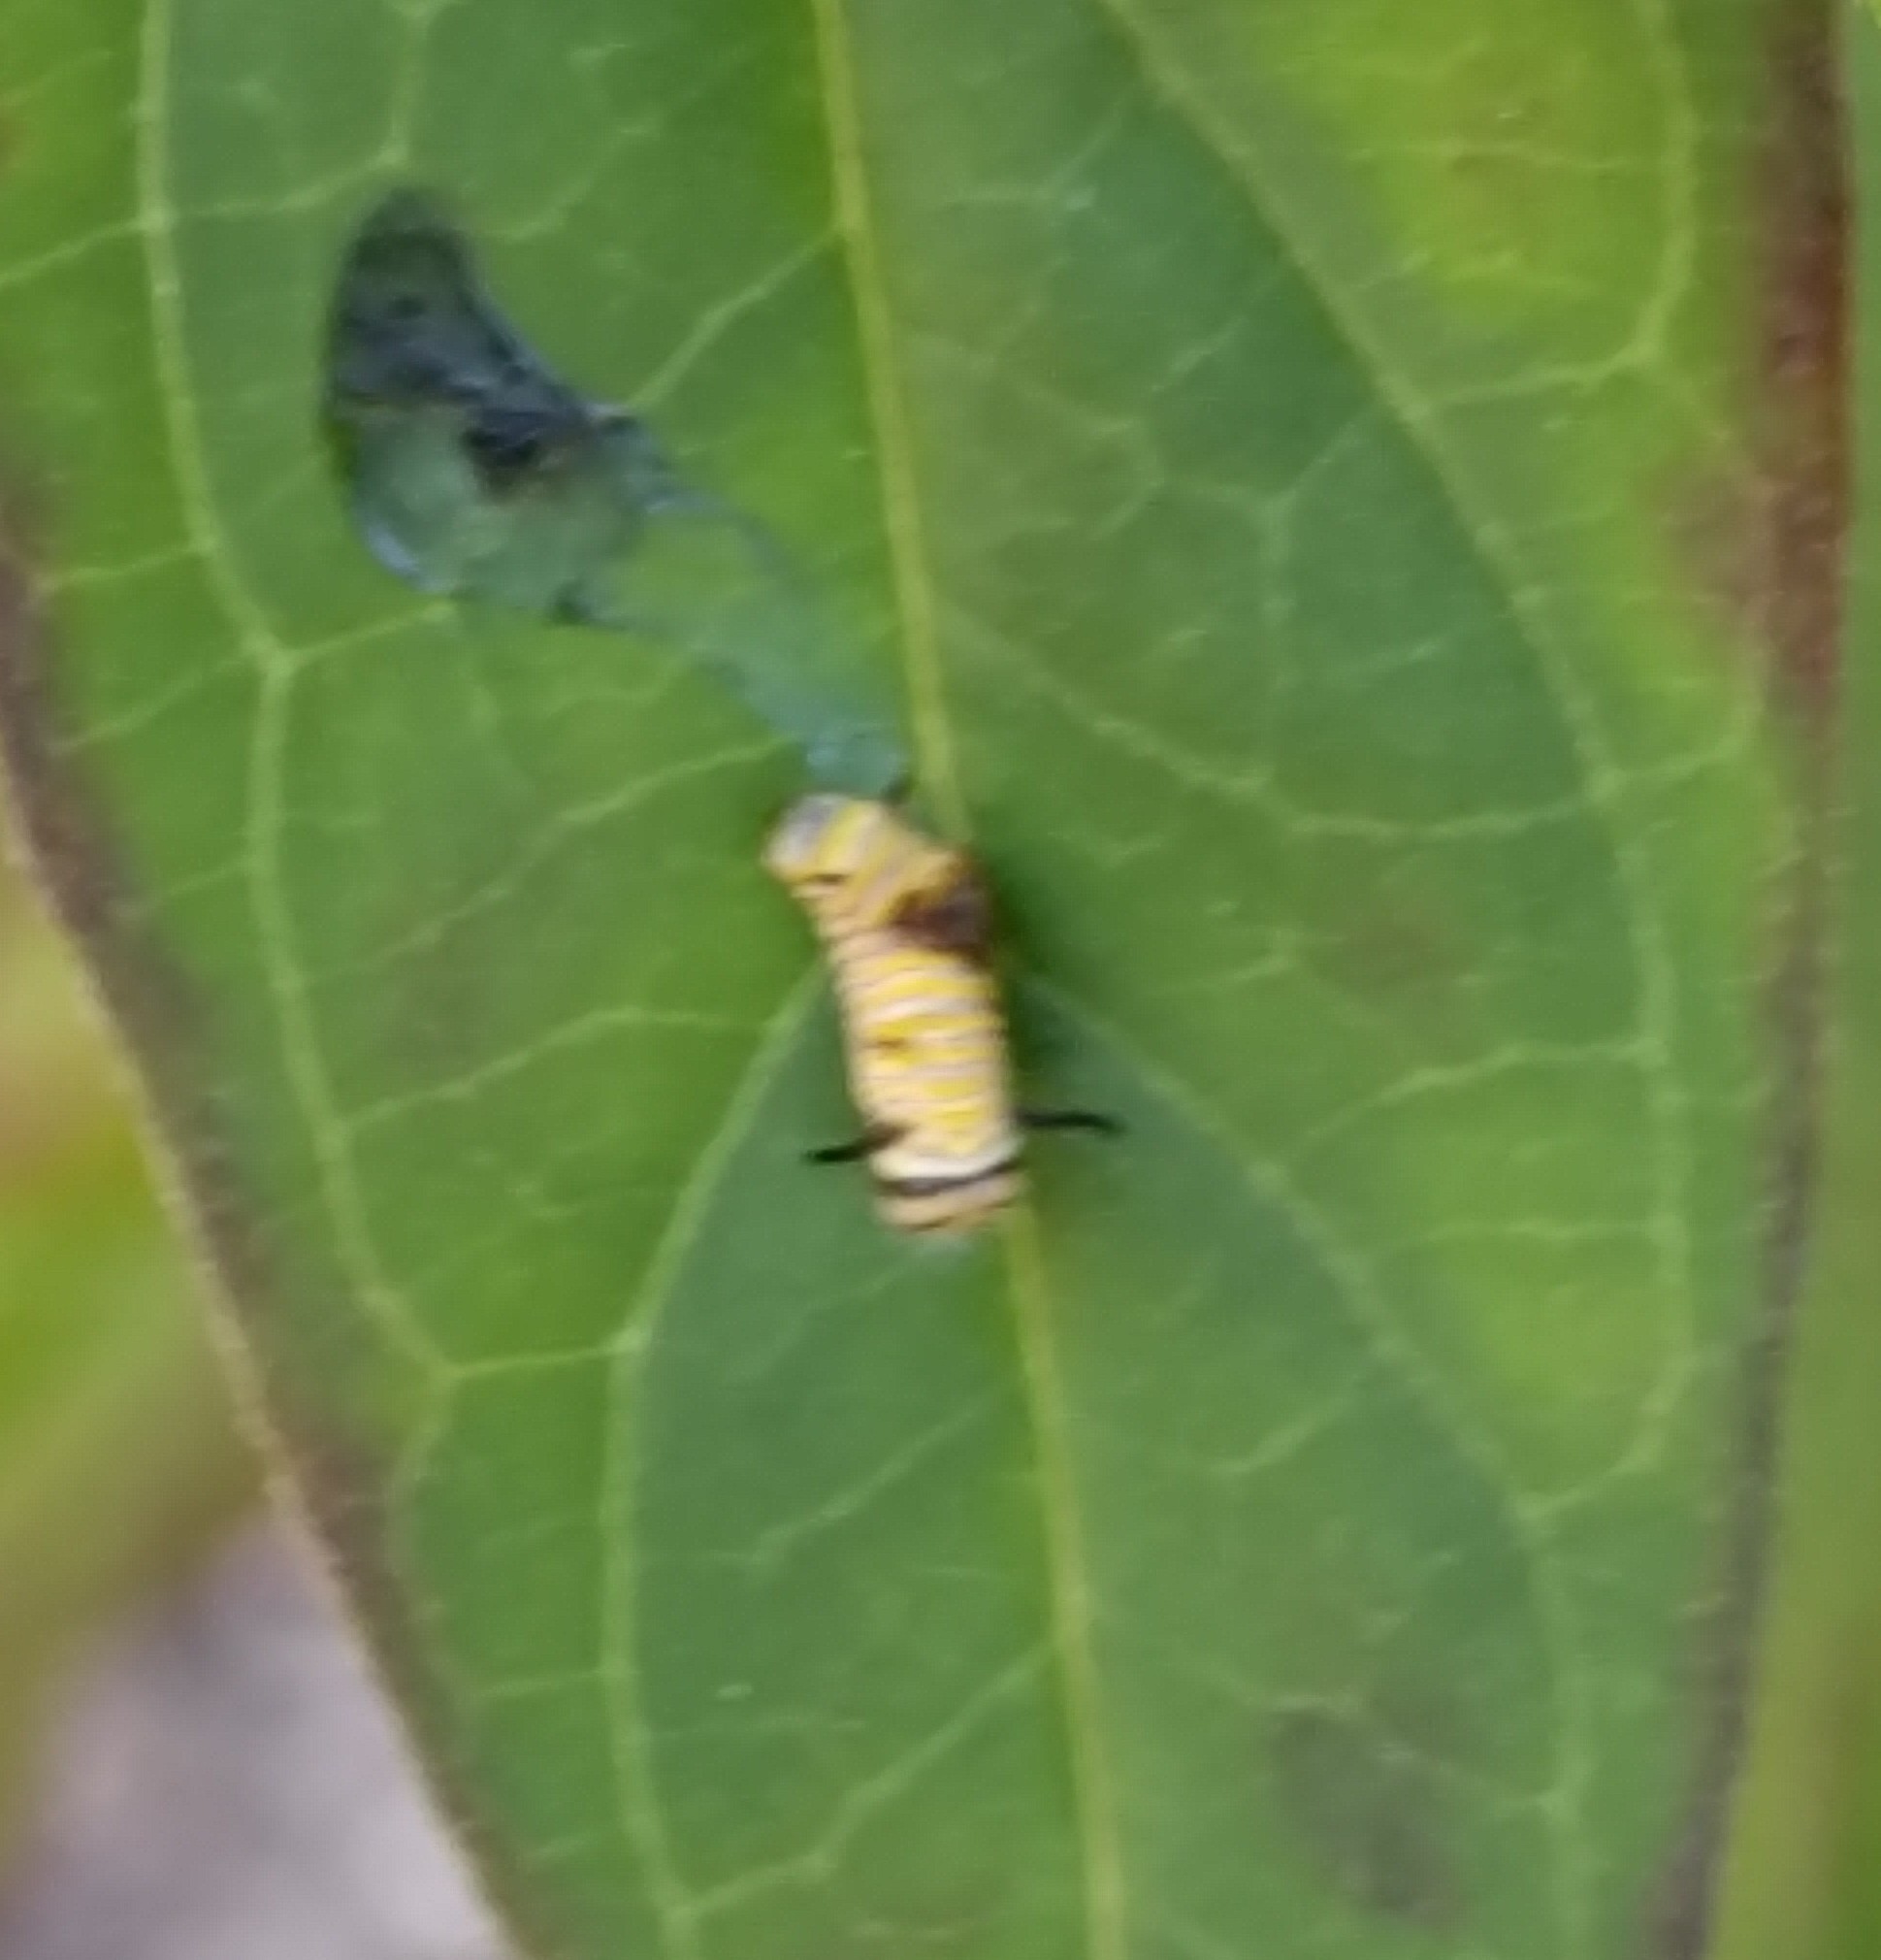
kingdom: Animalia
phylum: Arthropoda
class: Insecta
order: Lepidoptera
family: Nymphalidae
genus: Danaus
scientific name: Danaus plexippus
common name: Monarch
